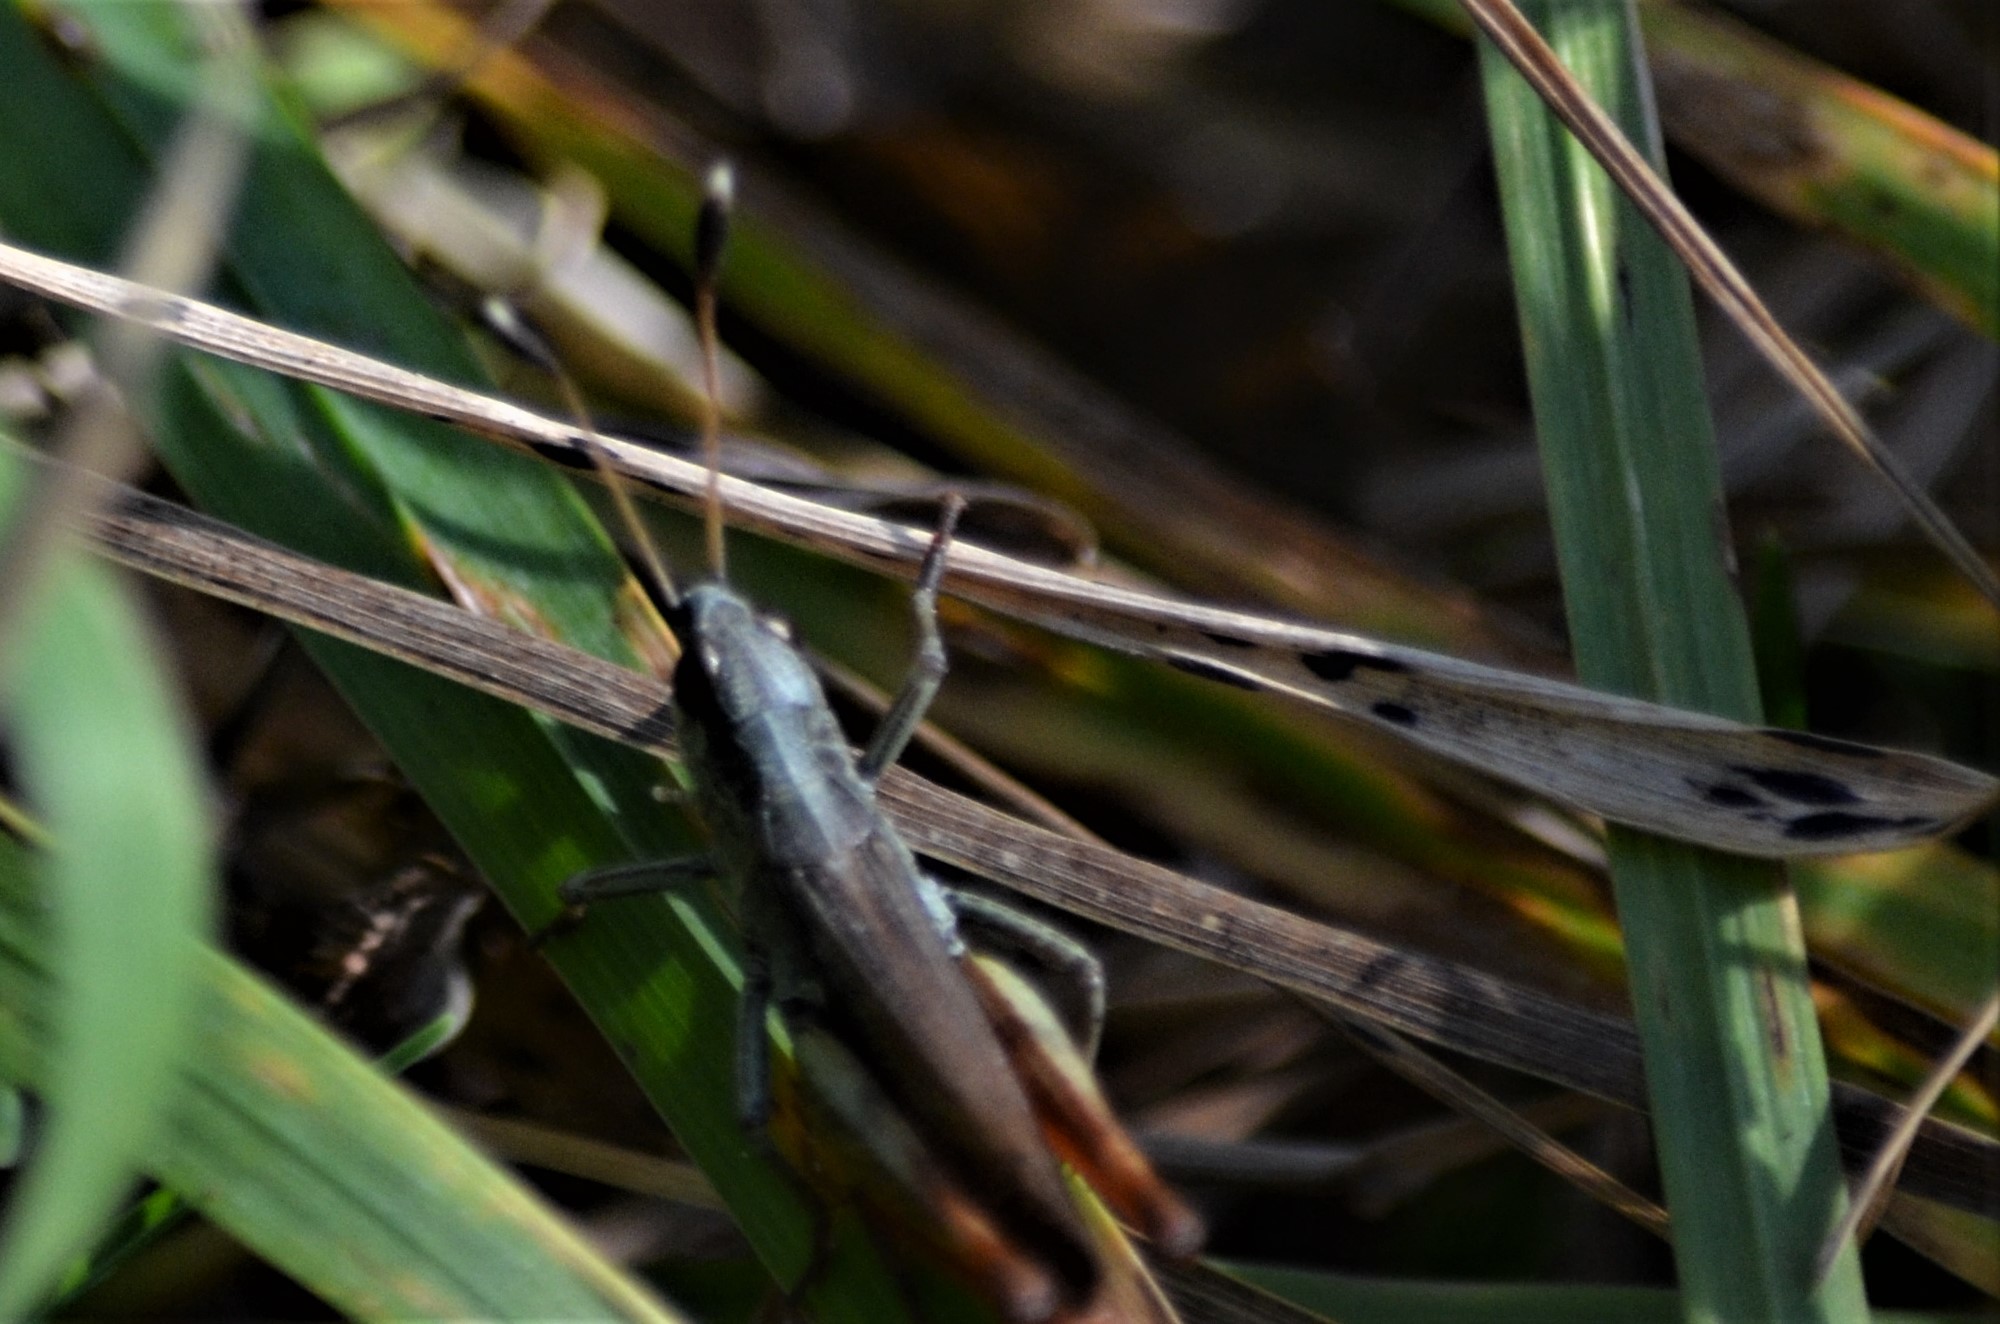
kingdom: Animalia
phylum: Arthropoda
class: Insecta
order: Orthoptera
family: Acrididae
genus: Gomphocerippus
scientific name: Gomphocerippus rufus
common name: Rufous grasshopper
